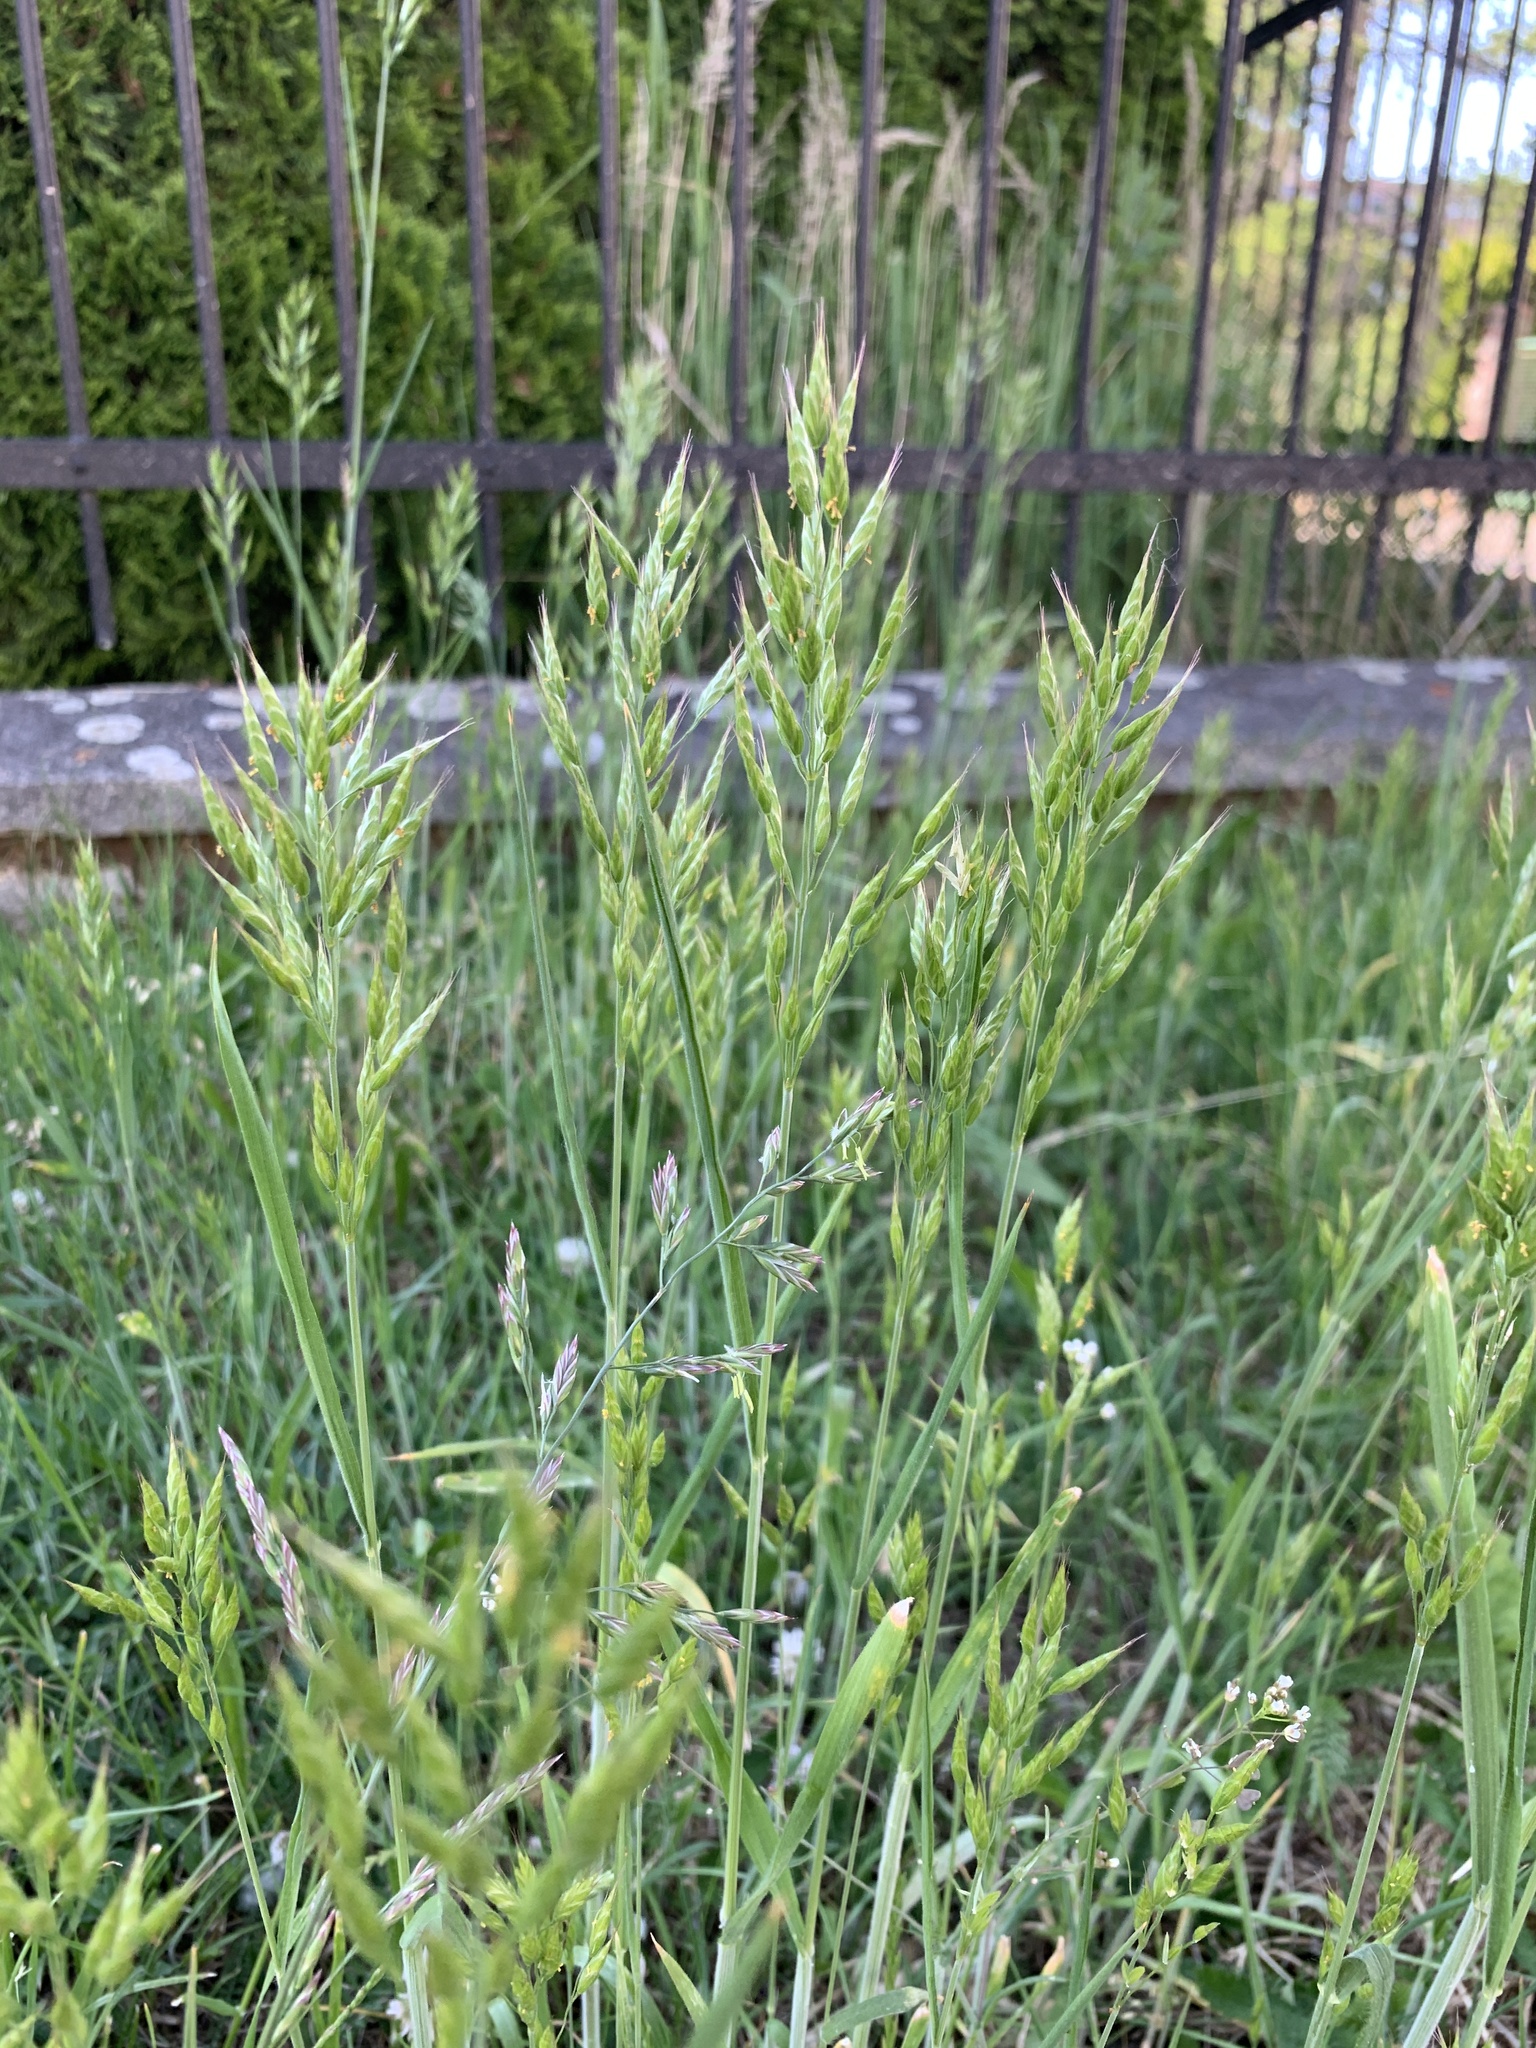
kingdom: Plantae
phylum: Tracheophyta
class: Liliopsida
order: Poales
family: Poaceae
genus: Bromus
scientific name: Bromus hordeaceus
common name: Soft brome
